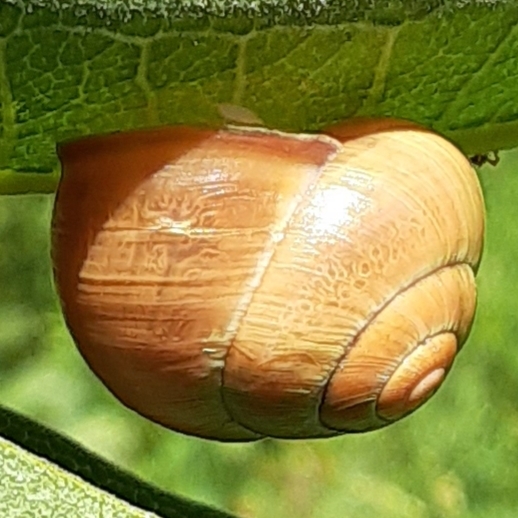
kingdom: Animalia
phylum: Mollusca
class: Gastropoda
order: Stylommatophora
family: Helicidae
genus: Cepaea
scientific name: Cepaea nemoralis
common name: Grovesnail
